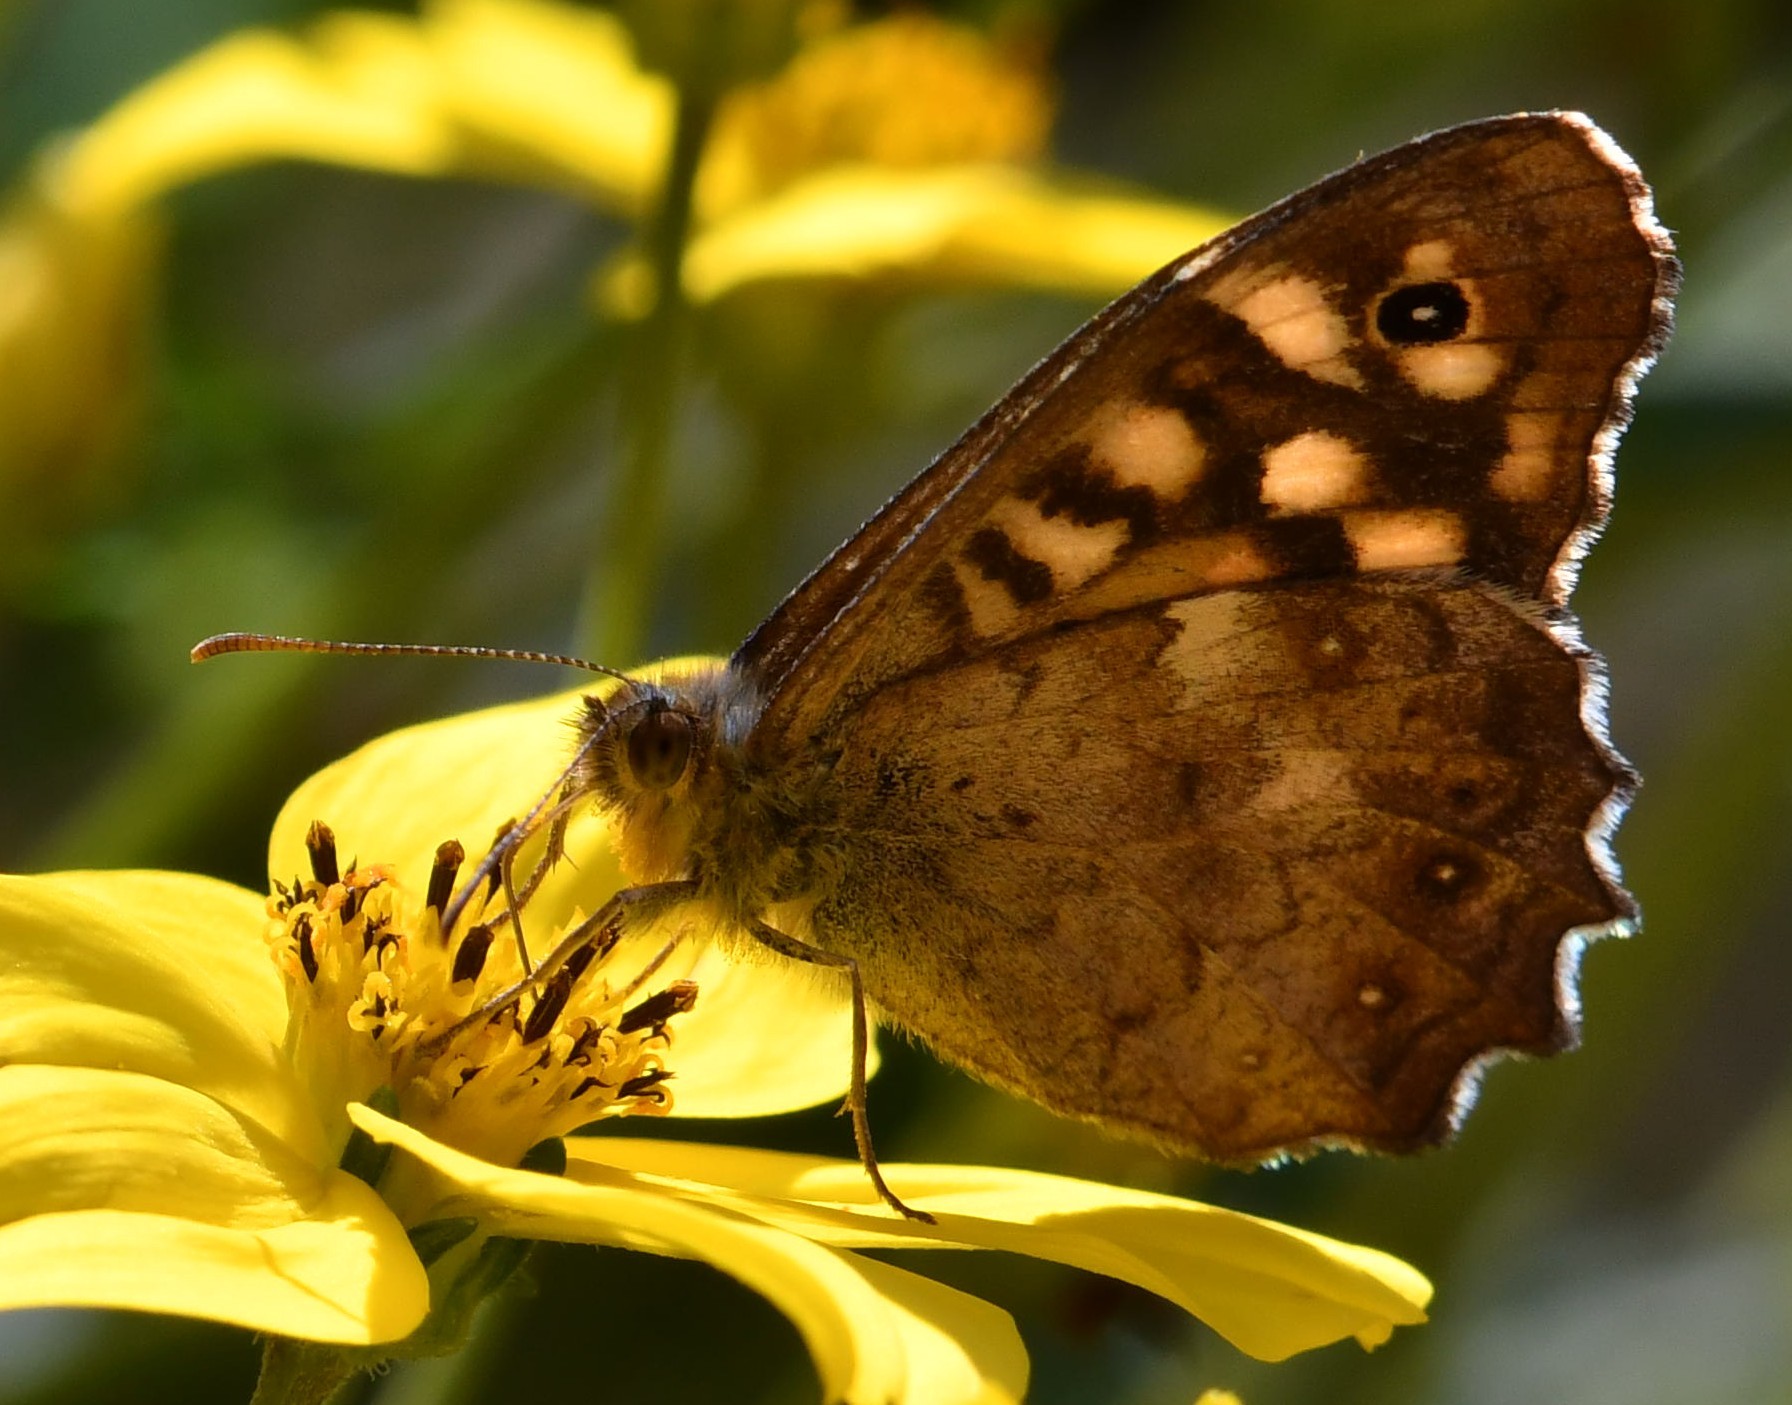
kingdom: Animalia
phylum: Arthropoda
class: Insecta
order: Lepidoptera
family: Nymphalidae
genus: Pararge
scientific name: Pararge aegeria
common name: Speckled wood
